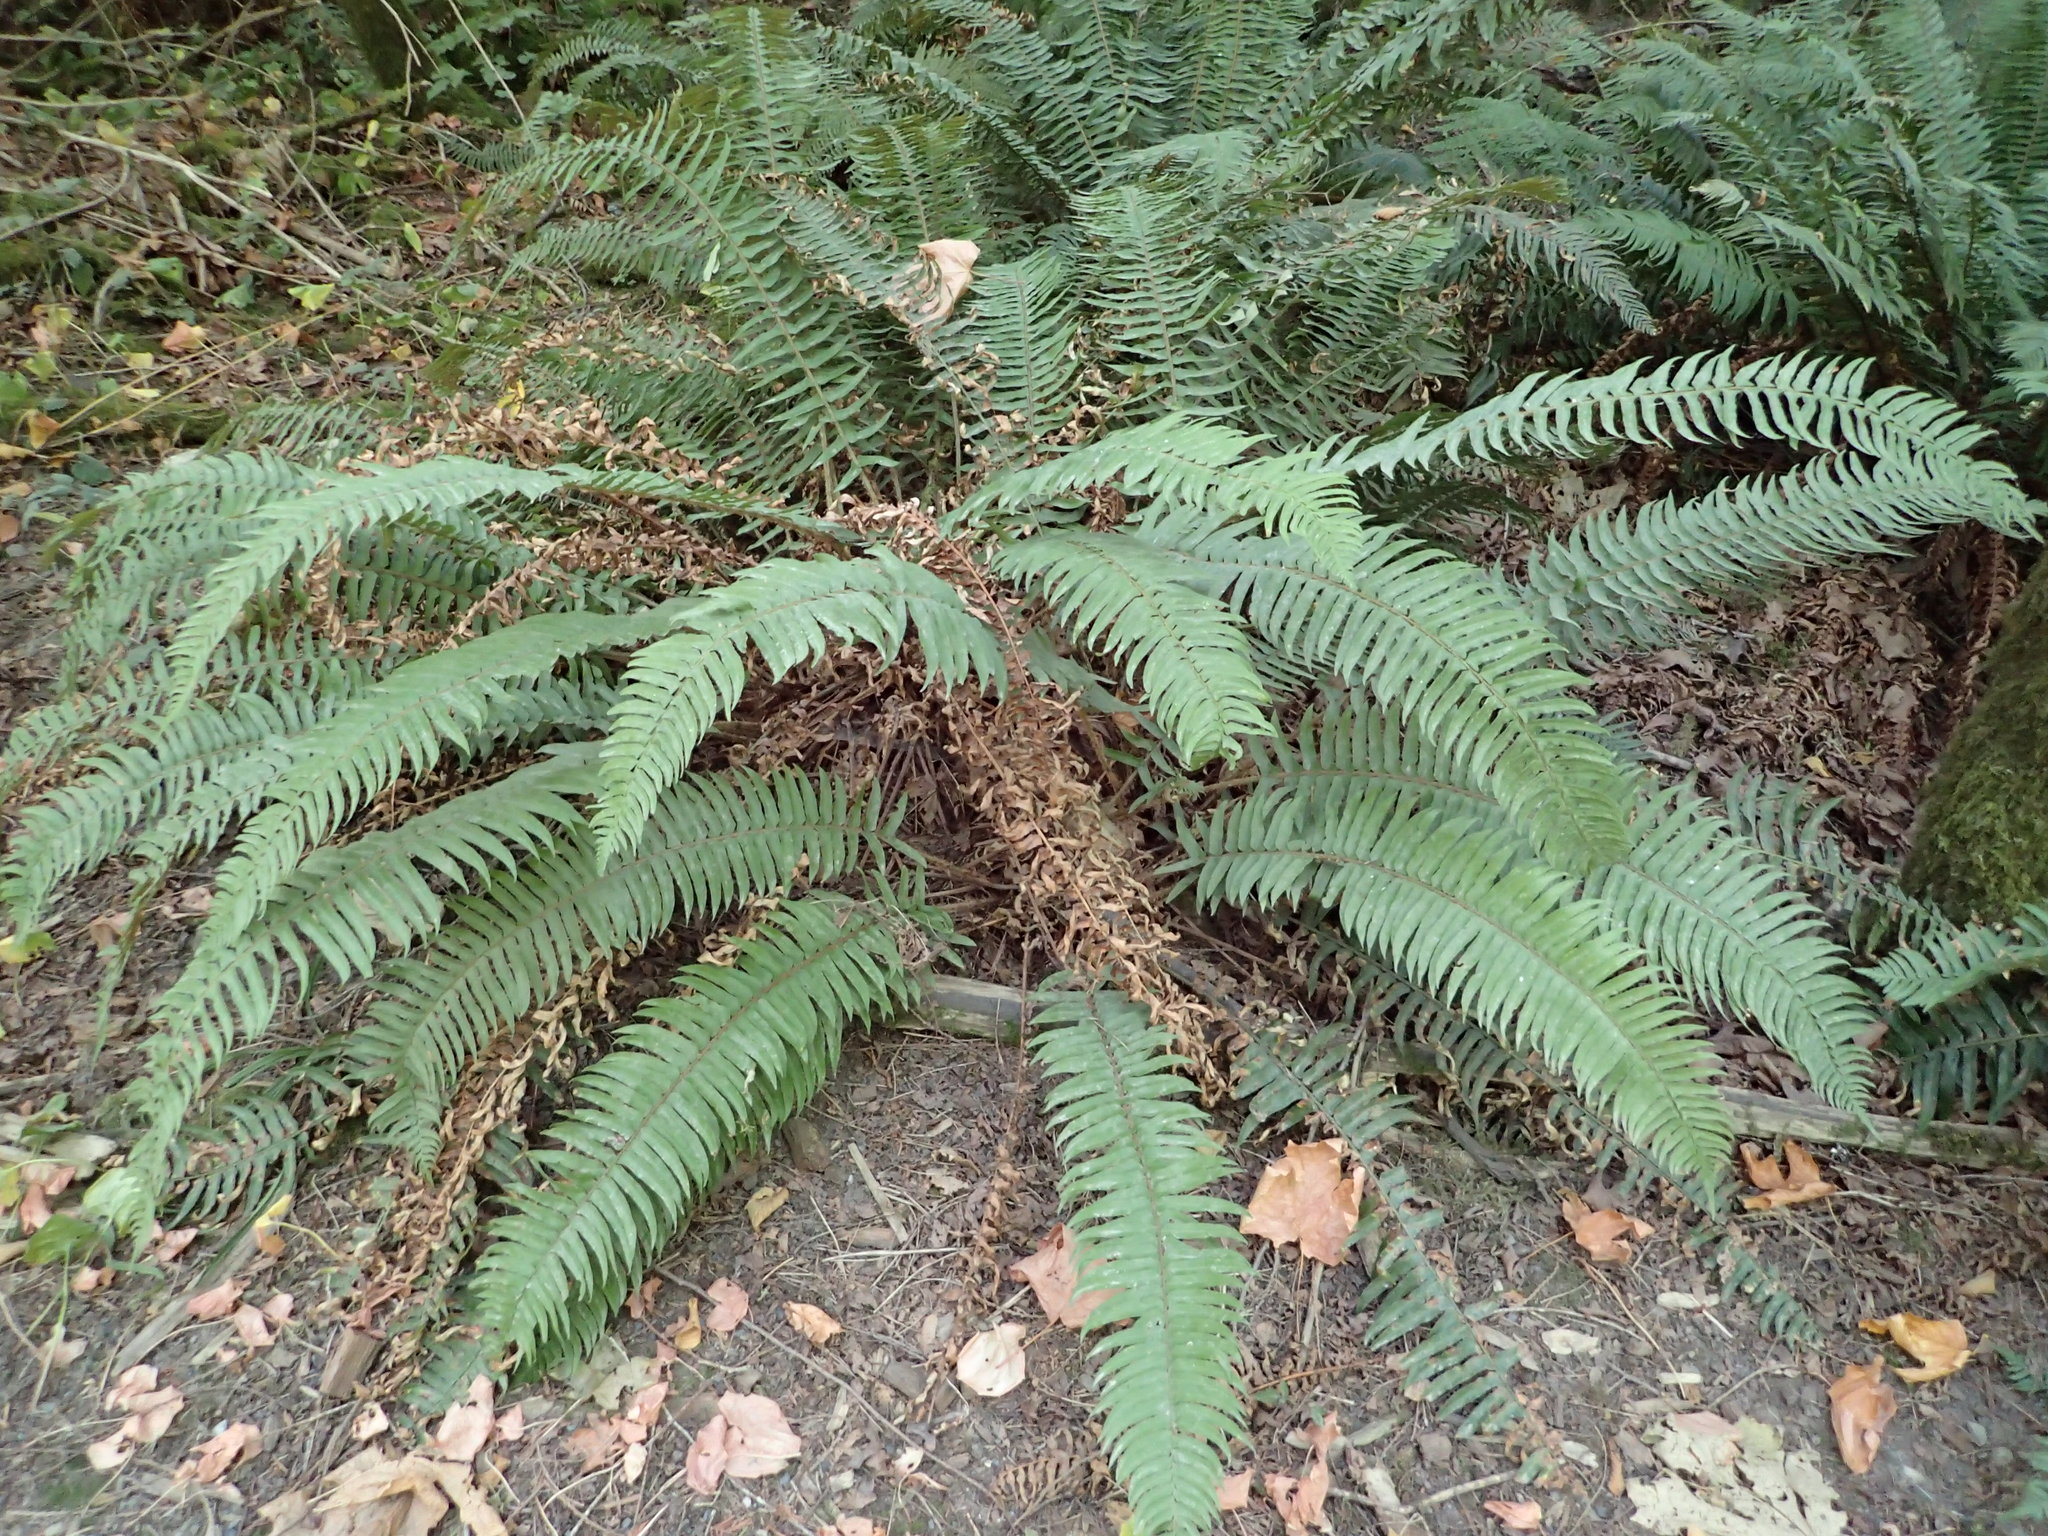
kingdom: Plantae
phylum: Tracheophyta
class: Polypodiopsida
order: Polypodiales
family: Dryopteridaceae
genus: Polystichum
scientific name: Polystichum munitum
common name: Western sword-fern
